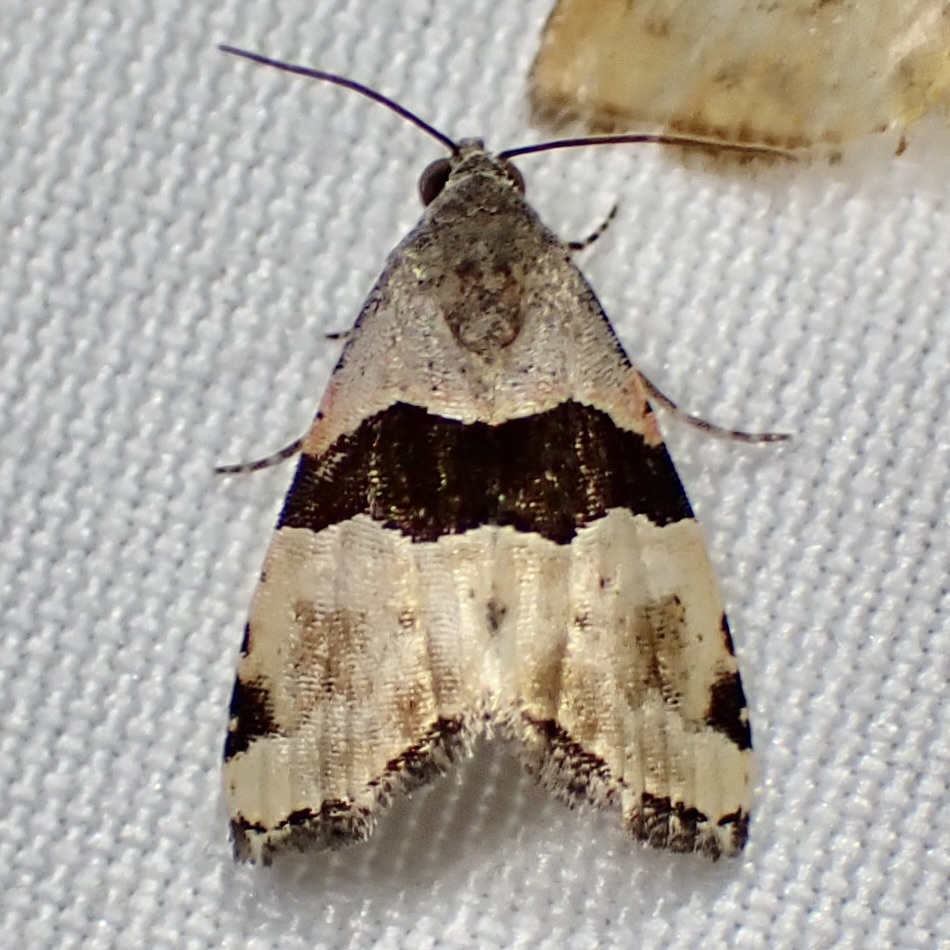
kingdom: Animalia
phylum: Arthropoda
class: Insecta
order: Lepidoptera
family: Noctuidae
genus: Cobubatha
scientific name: Cobubatha lixiva
